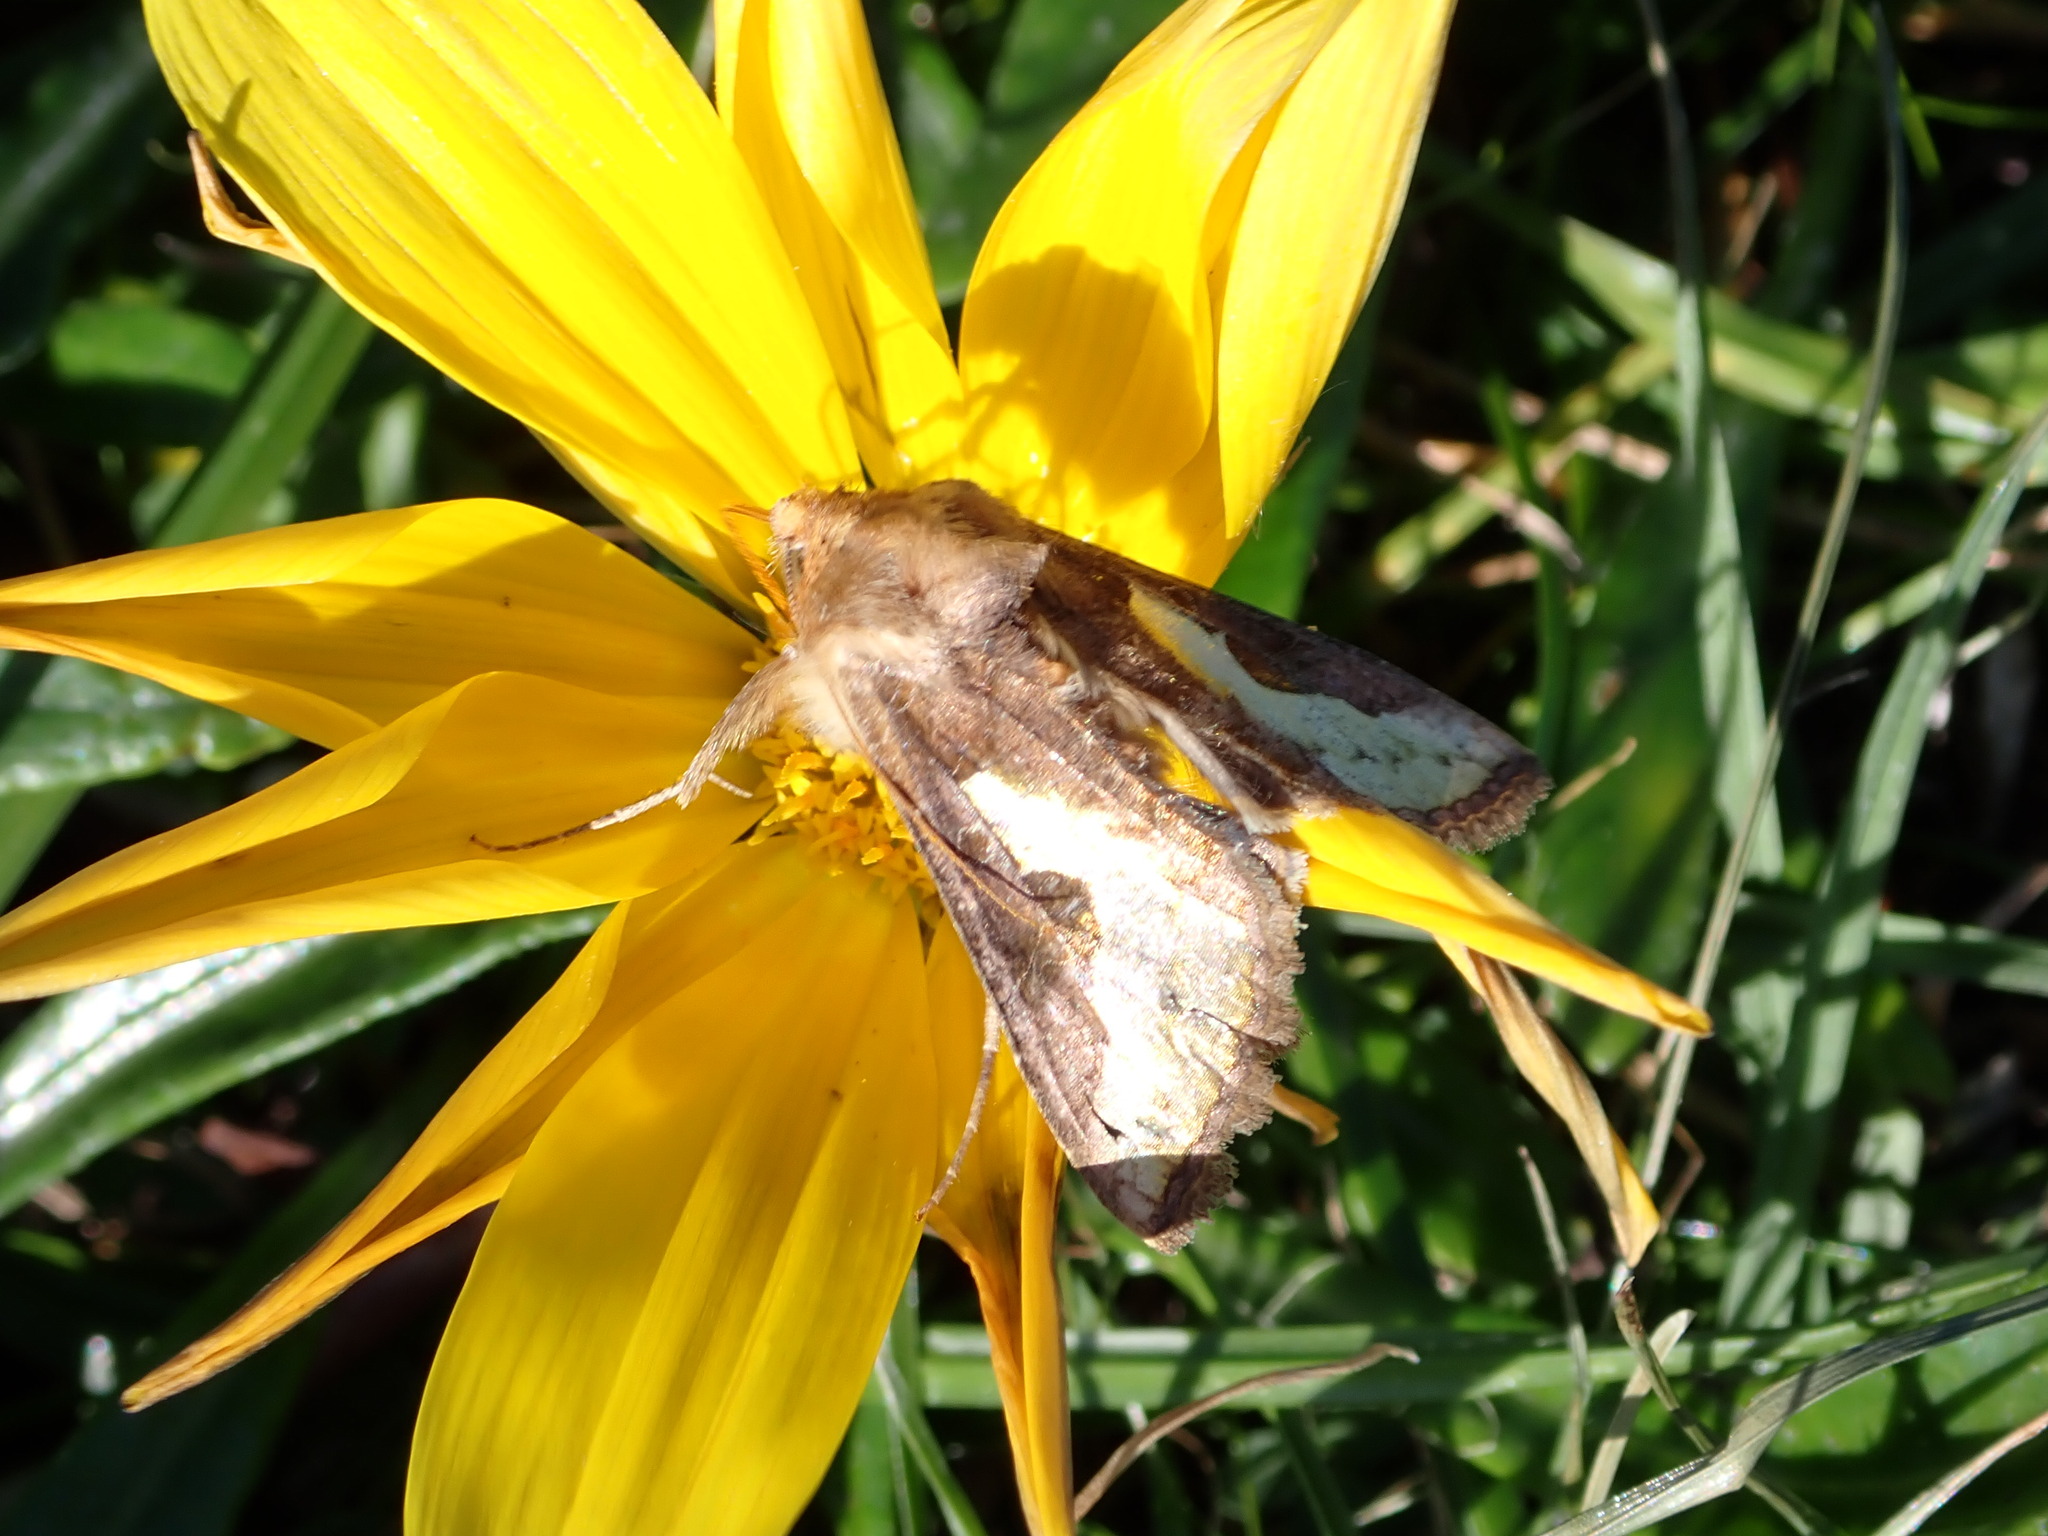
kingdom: Animalia
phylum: Arthropoda
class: Insecta
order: Lepidoptera
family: Noctuidae
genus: Thysanoplusia
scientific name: Thysanoplusia orichalcea
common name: Slender burnished brass, golden plusia
